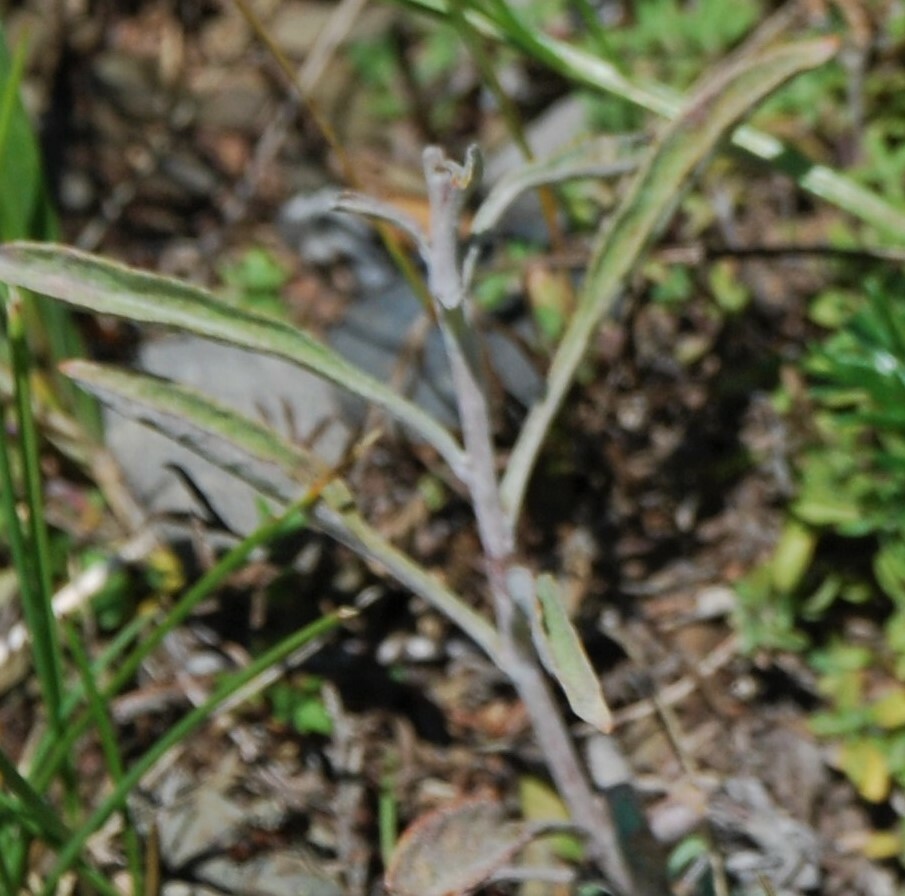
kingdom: Plantae
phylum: Tracheophyta
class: Magnoliopsida
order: Lamiales
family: Plantaginaceae
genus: Veronica
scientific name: Veronica incana
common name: Silver speedwell
